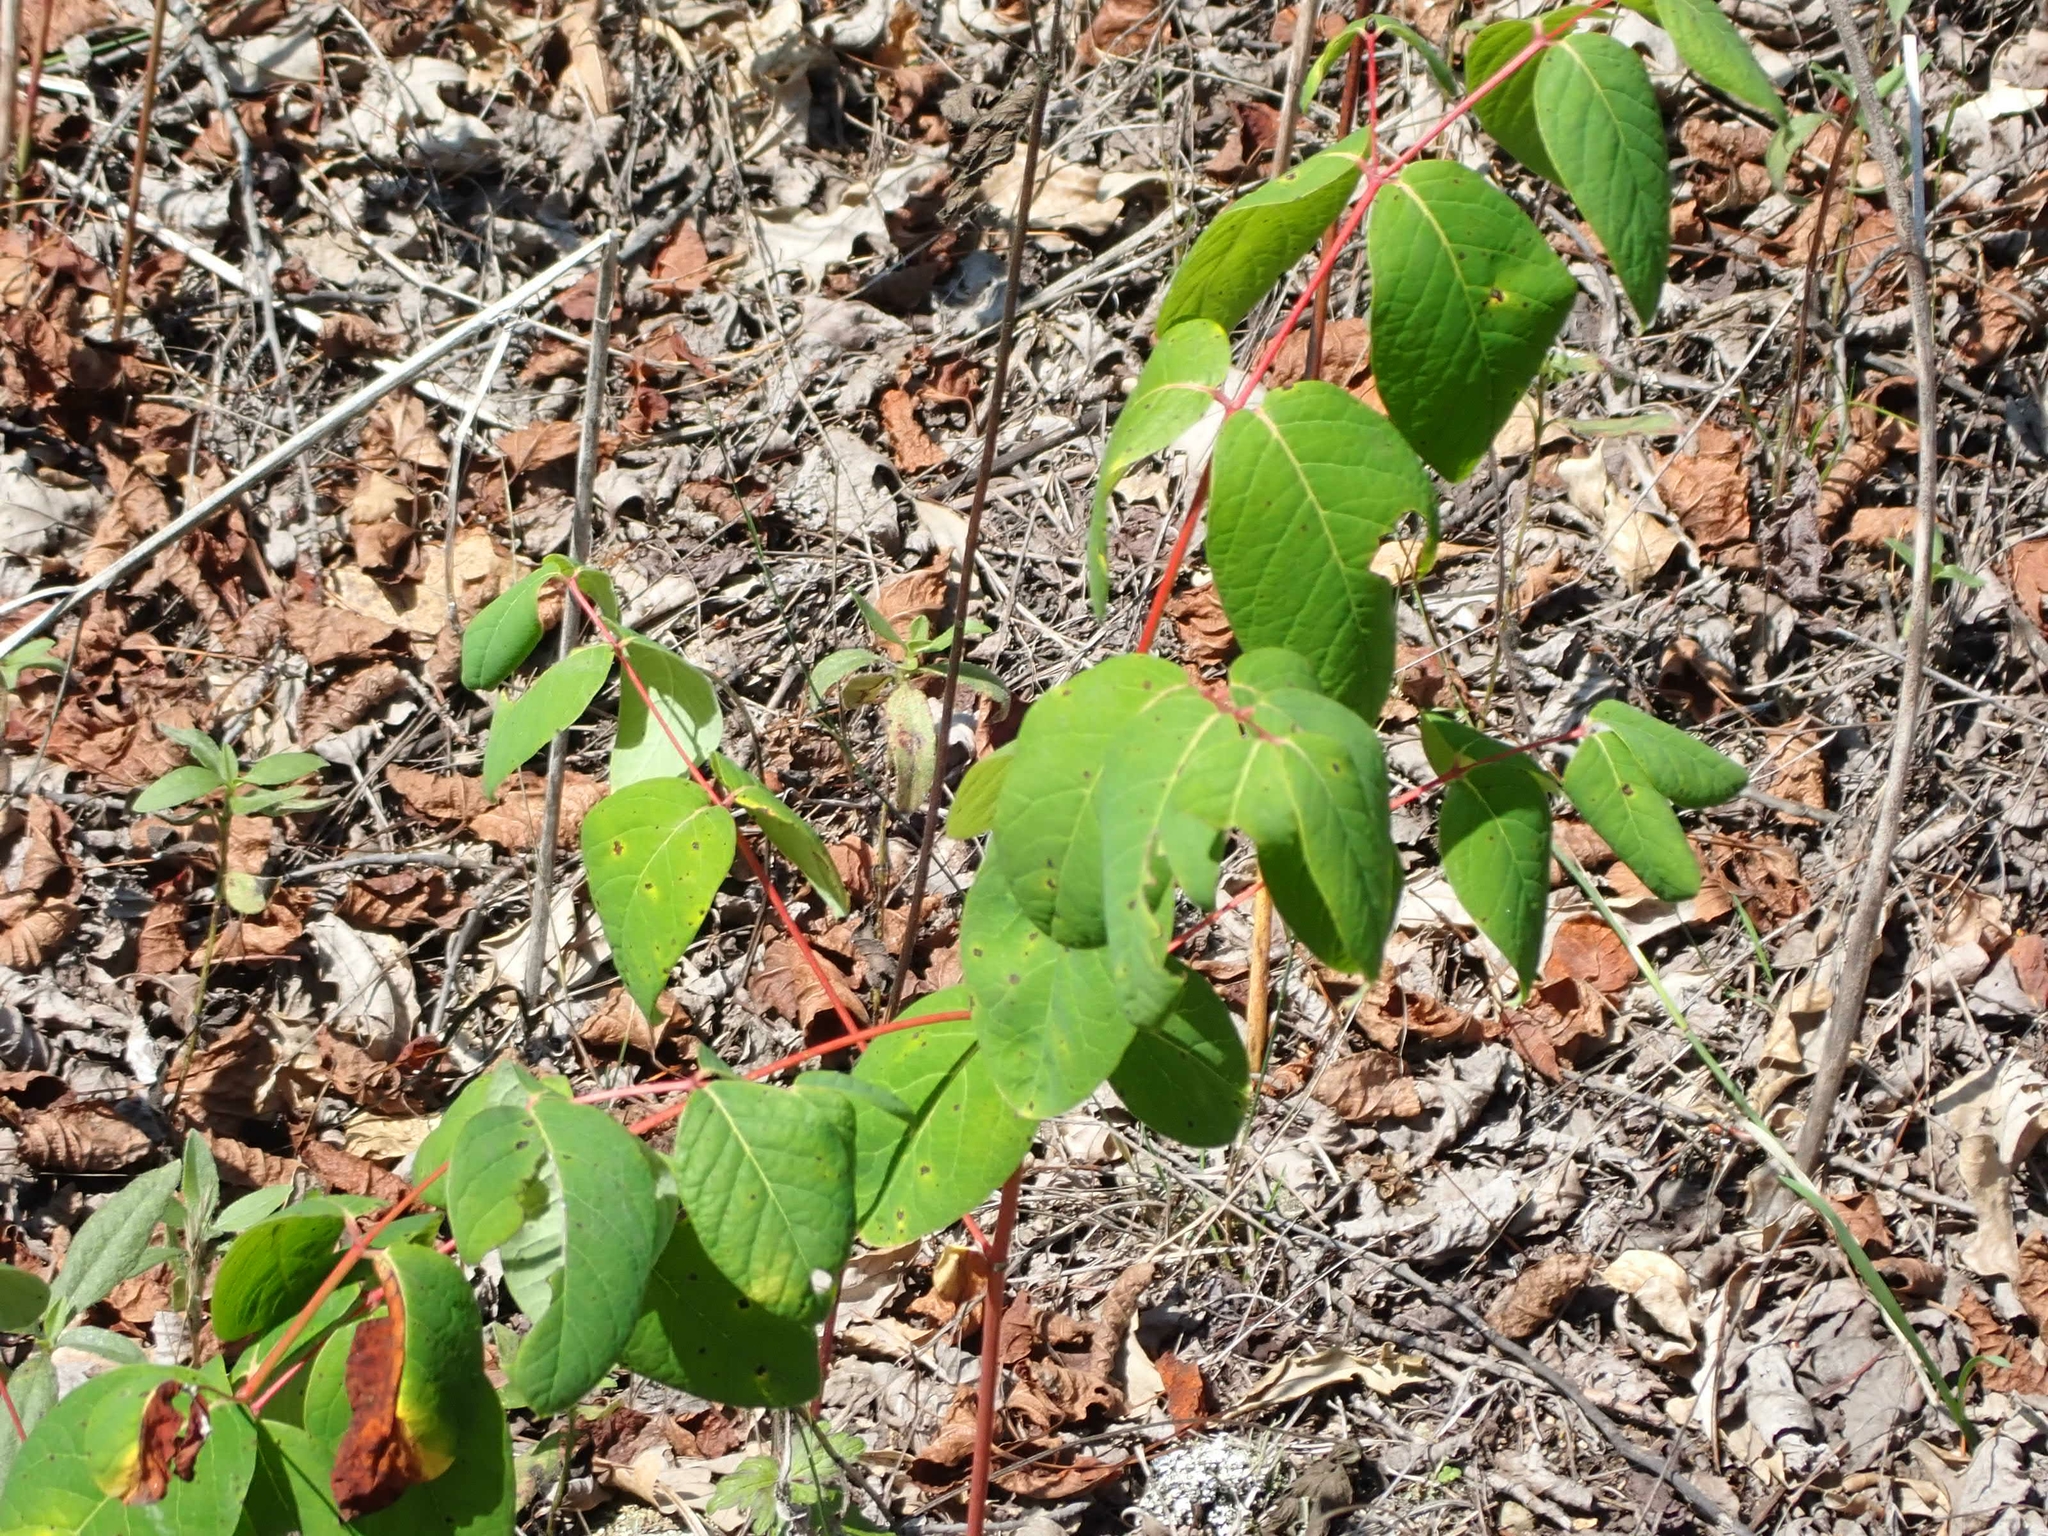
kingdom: Plantae
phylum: Tracheophyta
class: Magnoliopsida
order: Gentianales
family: Apocynaceae
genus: Apocynum
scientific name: Apocynum androsaemifolium
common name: Spreading dogbane
